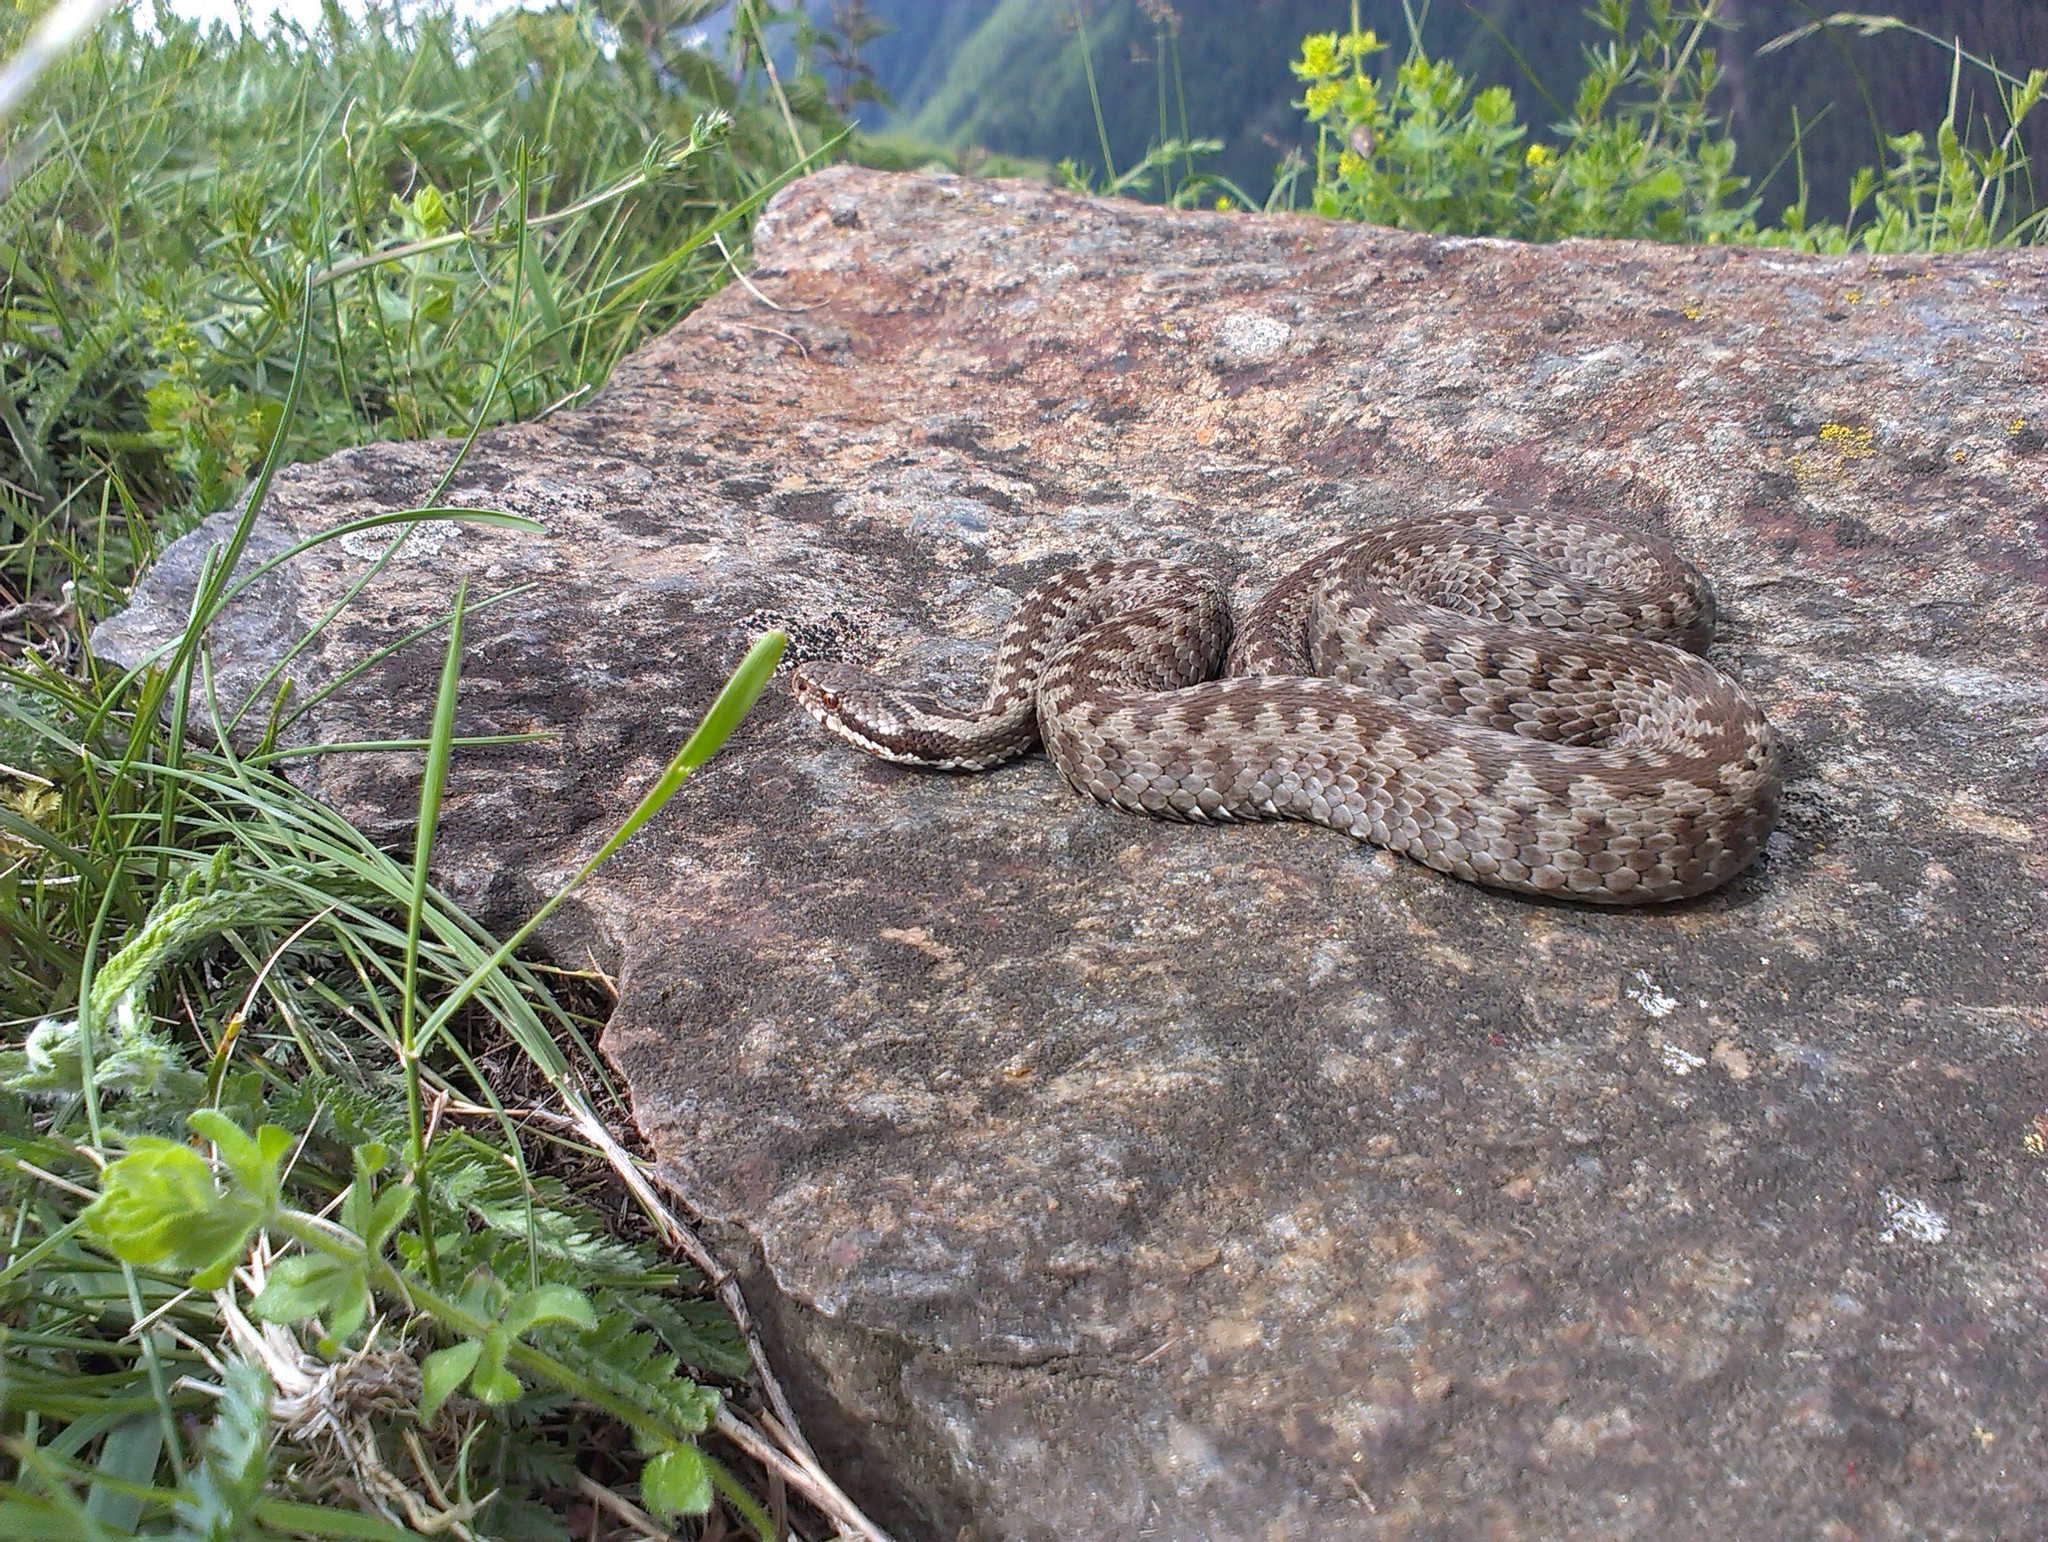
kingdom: Animalia
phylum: Chordata
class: Squamata
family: Viperidae
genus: Vipera
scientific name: Vipera berus
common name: Adder
